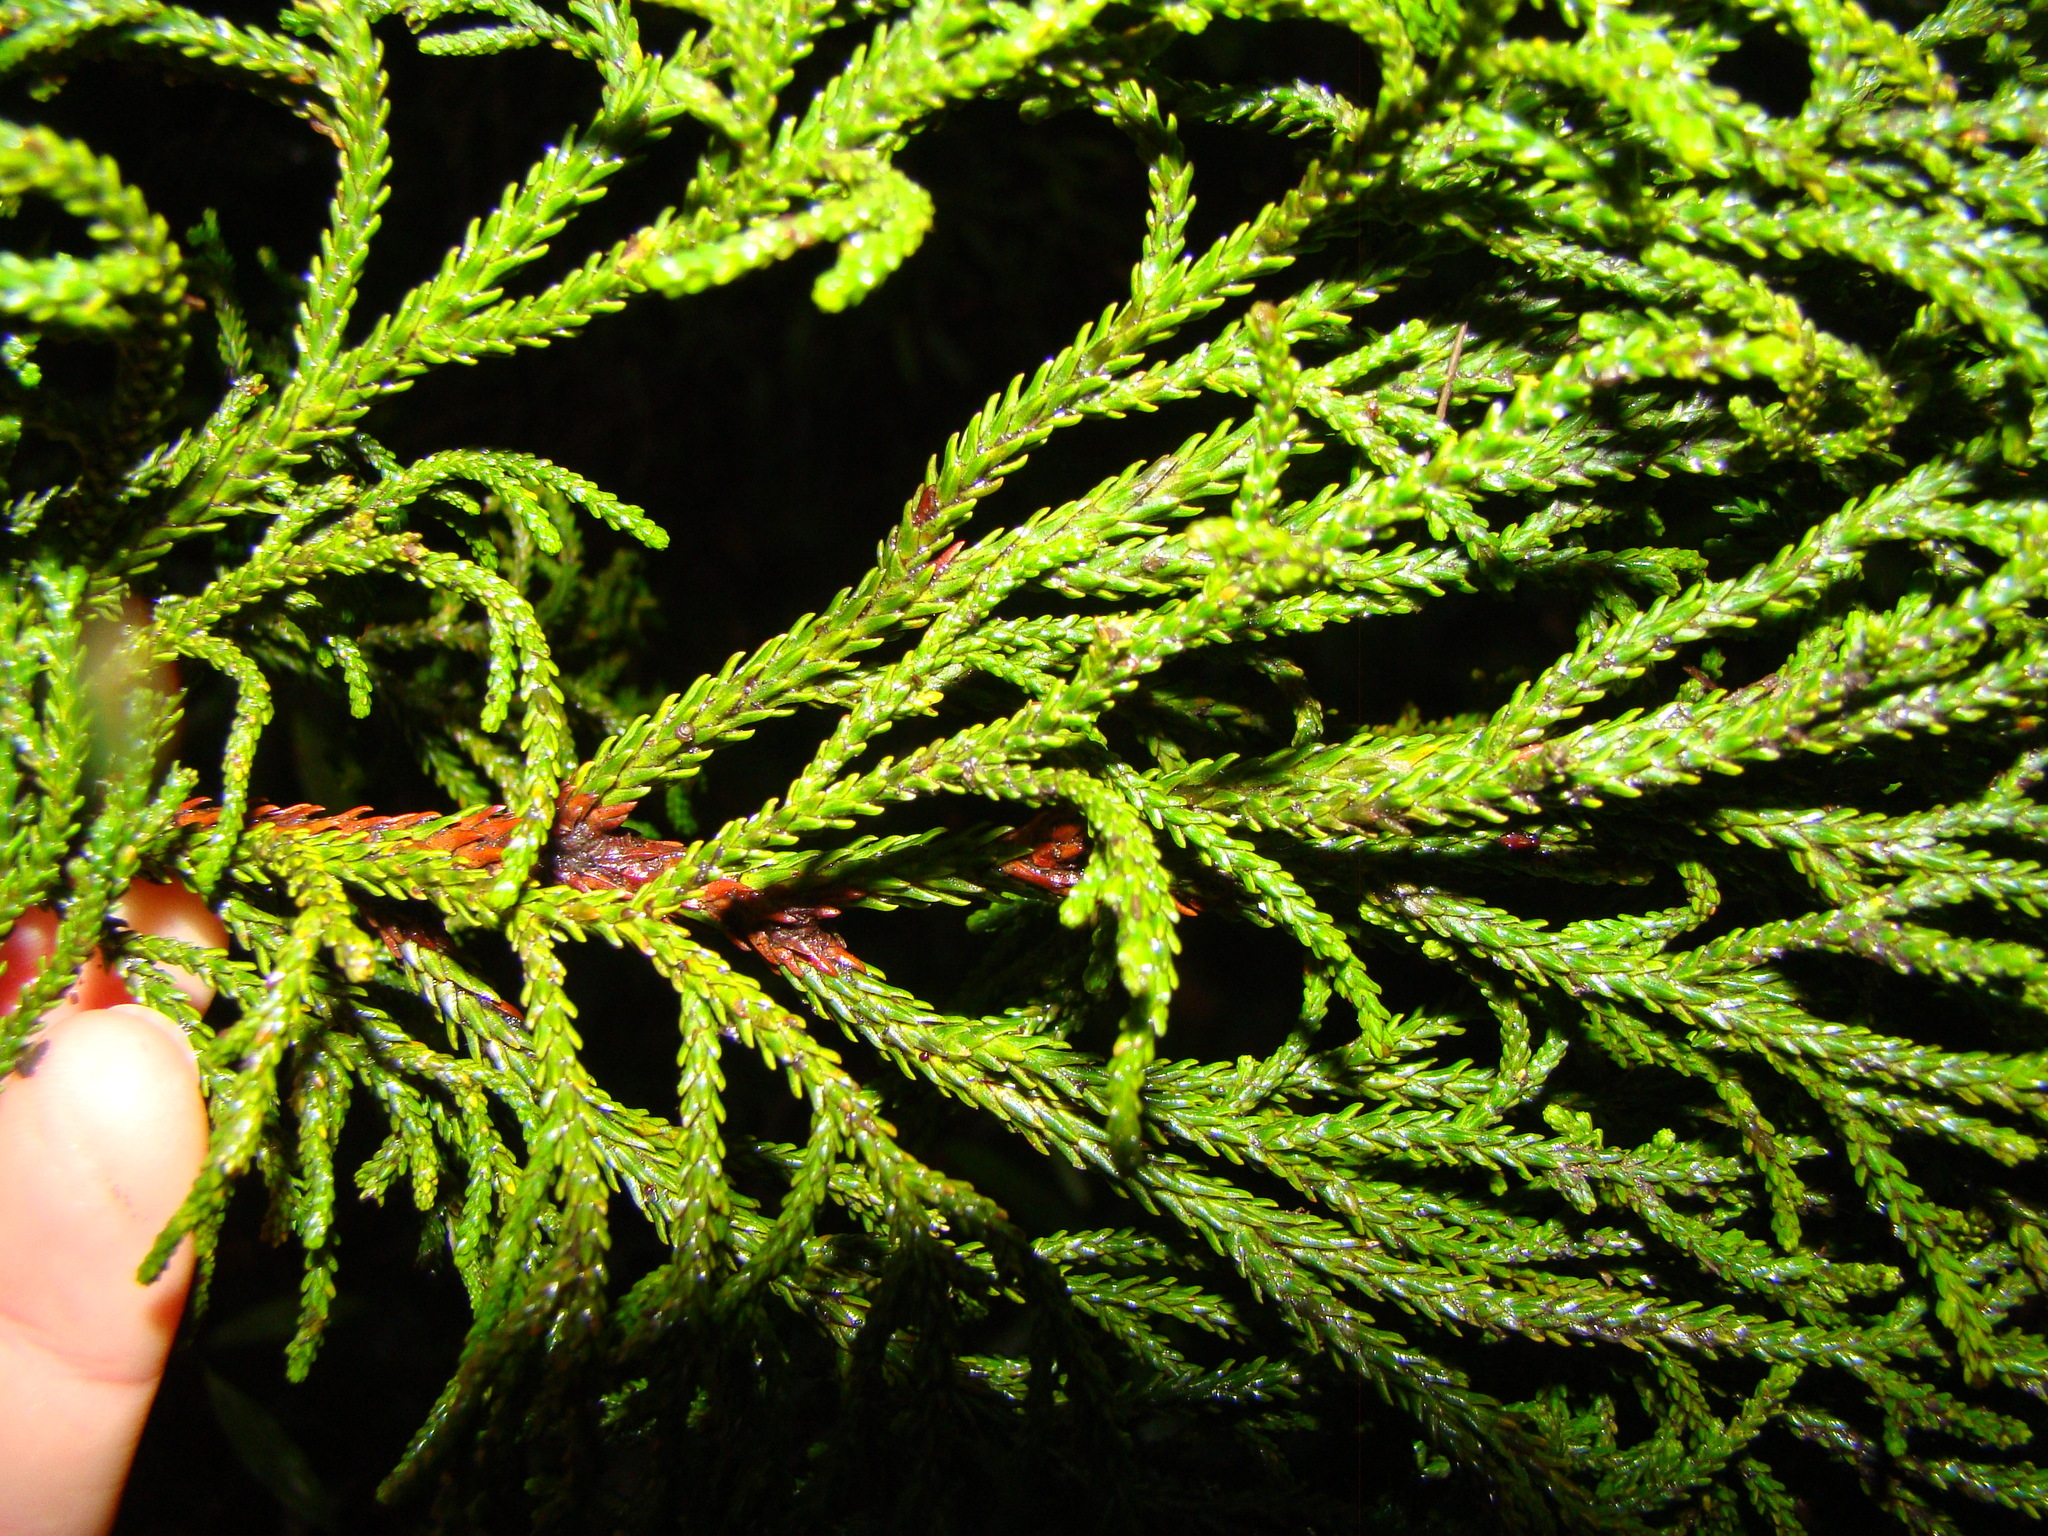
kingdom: Plantae
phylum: Tracheophyta
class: Pinopsida
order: Pinales
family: Podocarpaceae
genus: Dacrydium
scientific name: Dacrydium cupressinum
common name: Red pine
